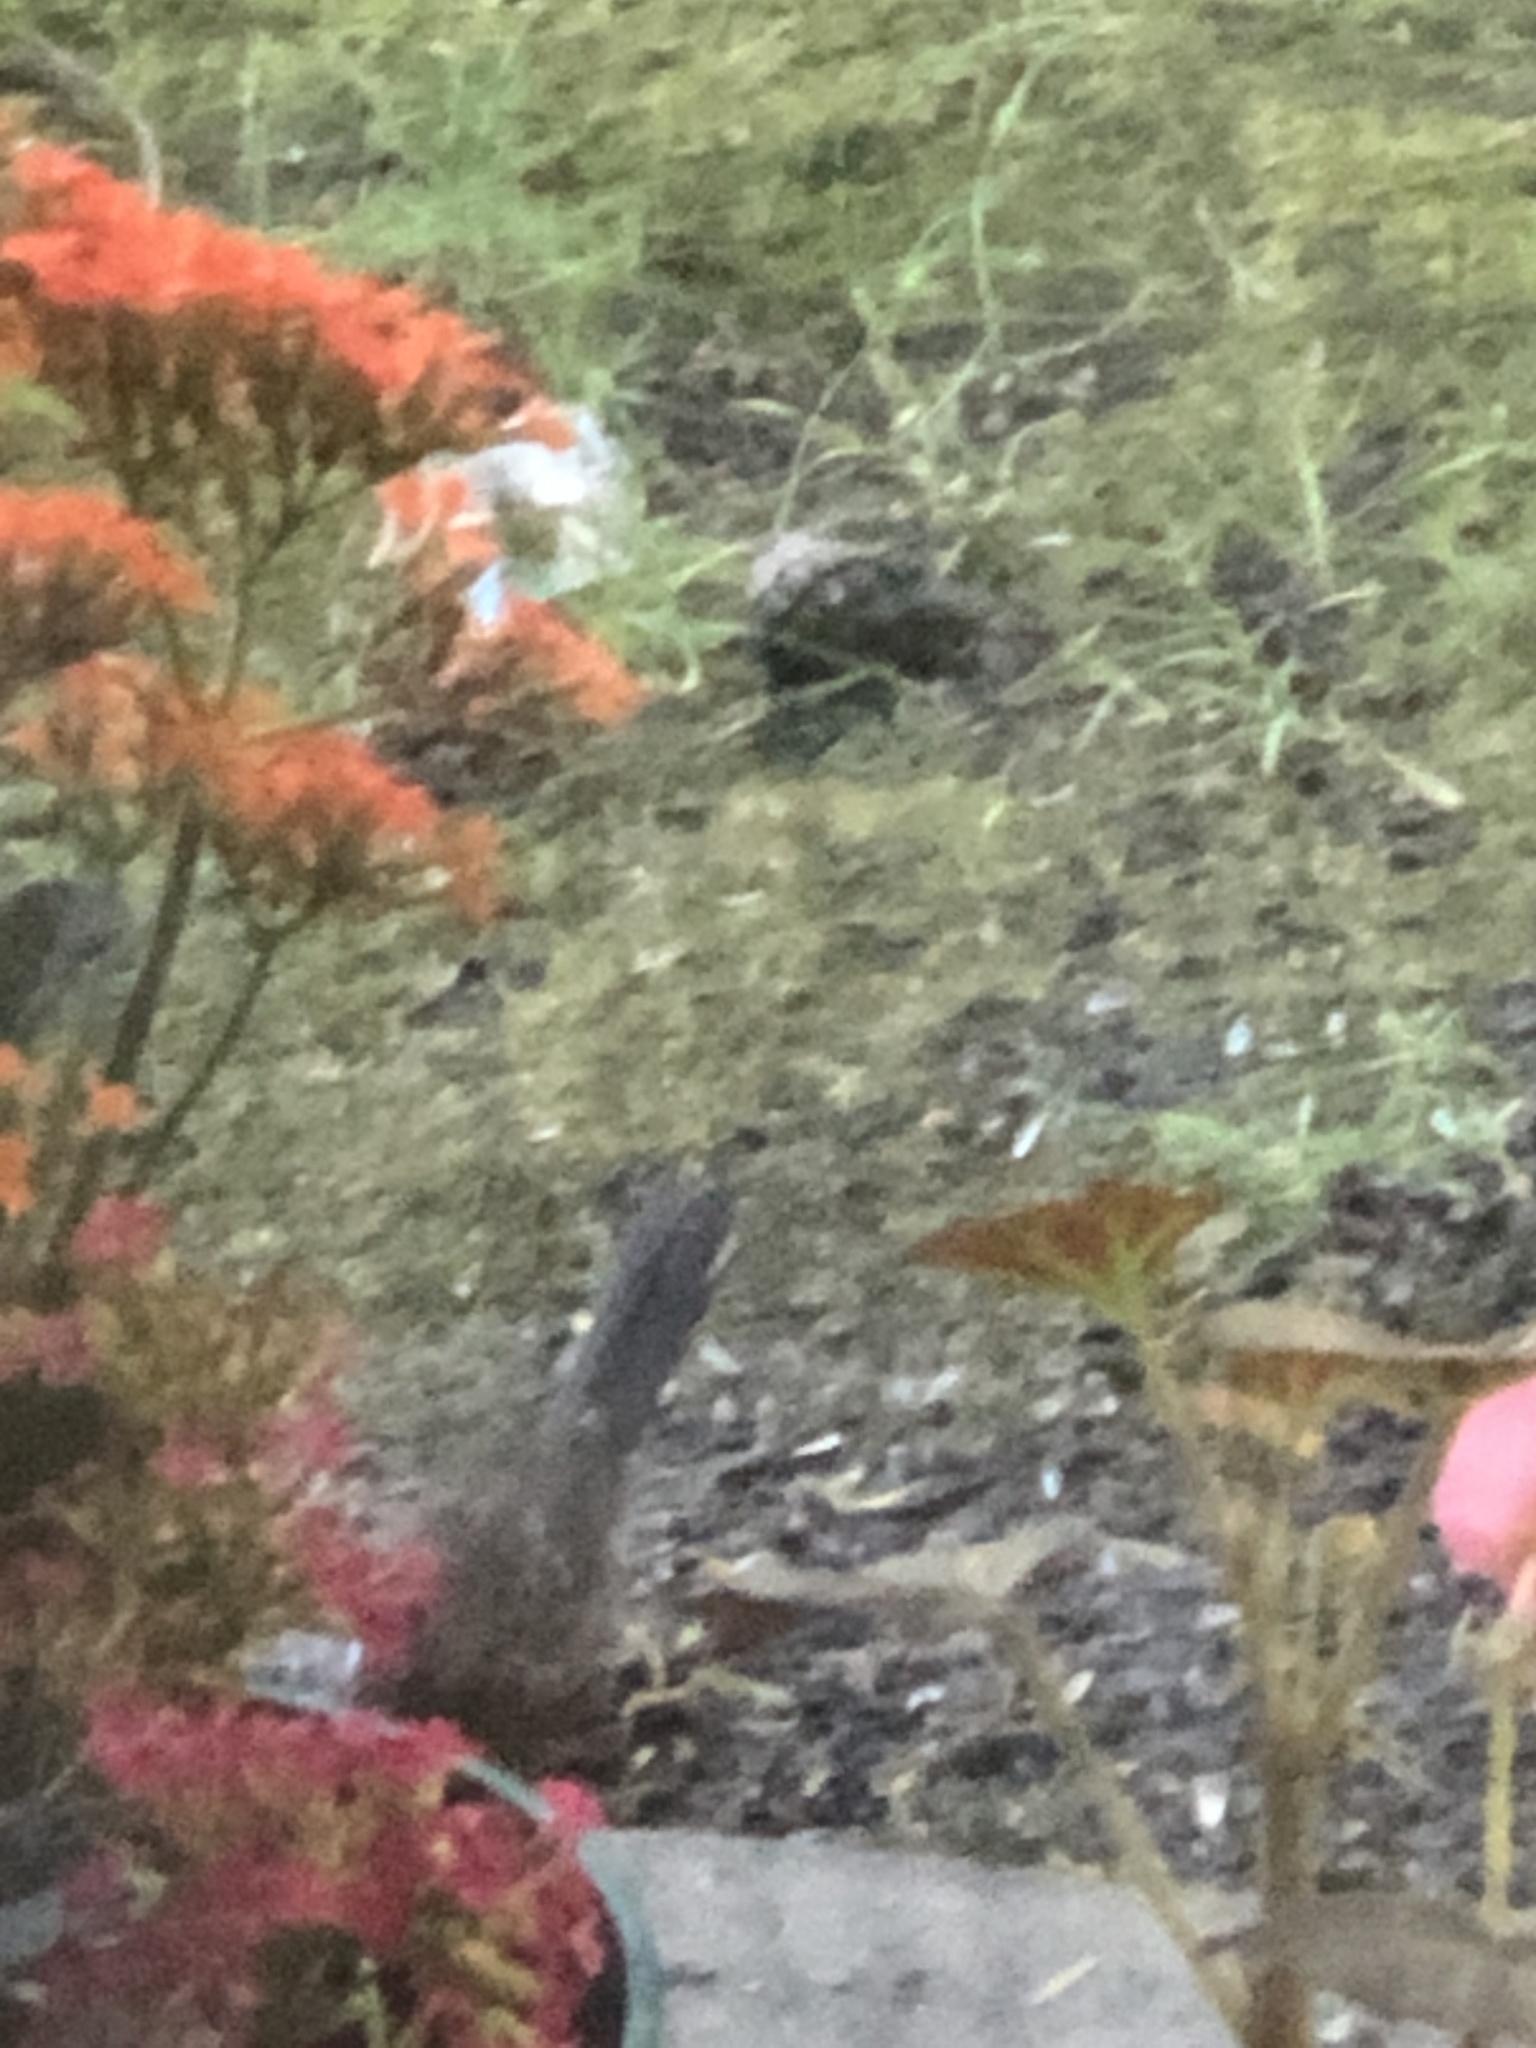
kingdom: Animalia
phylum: Chordata
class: Aves
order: Passeriformes
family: Passerellidae
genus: Pipilo
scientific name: Pipilo maculatus
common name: Spotted towhee
